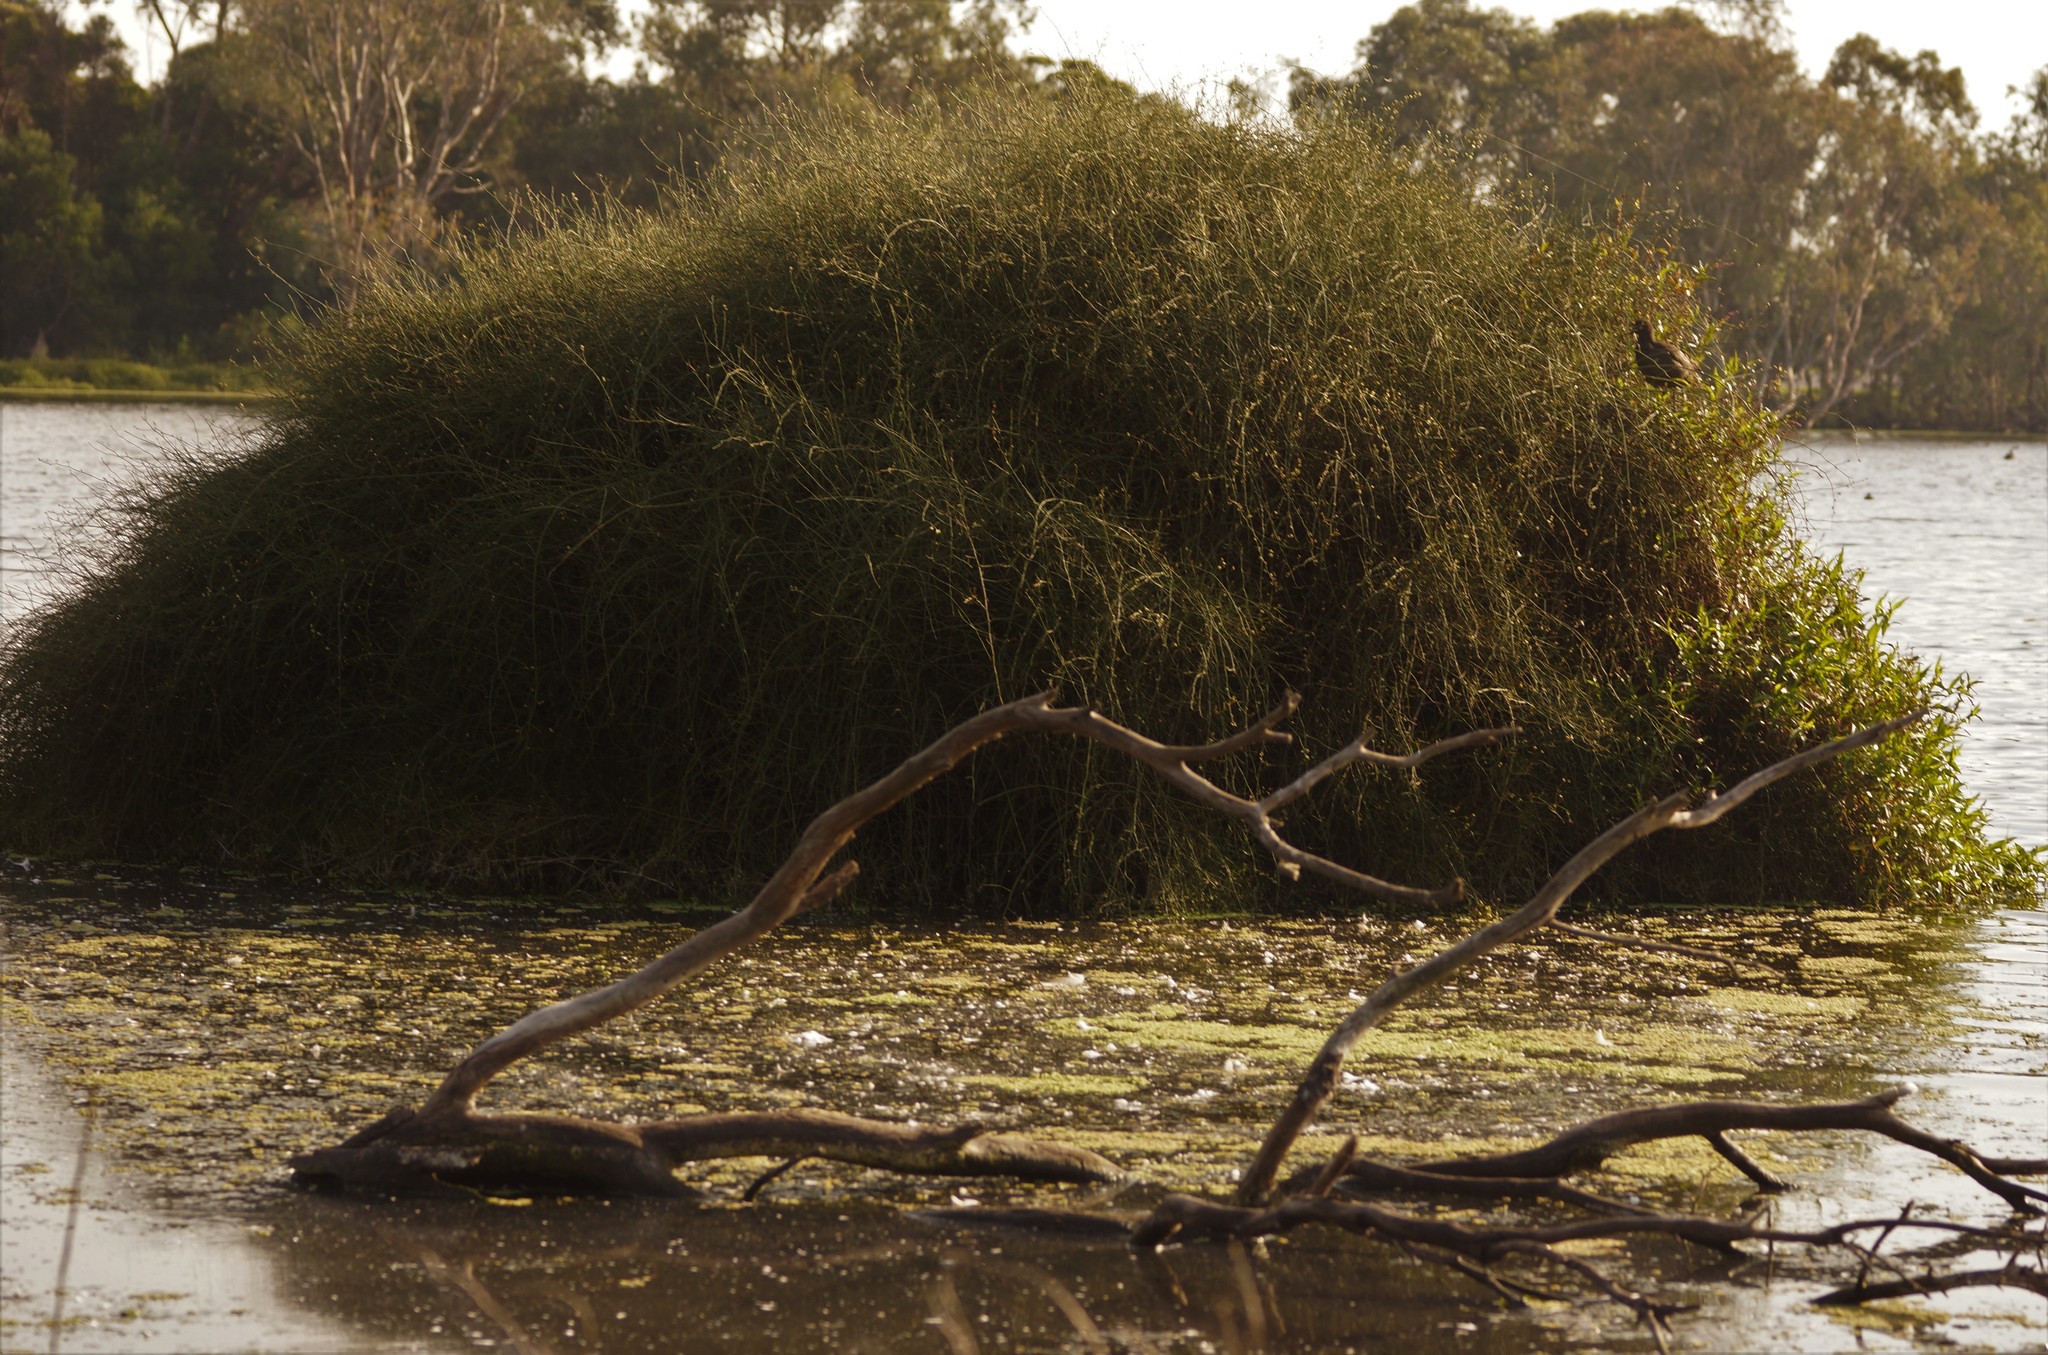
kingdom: Plantae
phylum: Tracheophyta
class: Magnoliopsida
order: Caryophyllales
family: Polygonaceae
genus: Duma
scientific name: Duma florulenta
